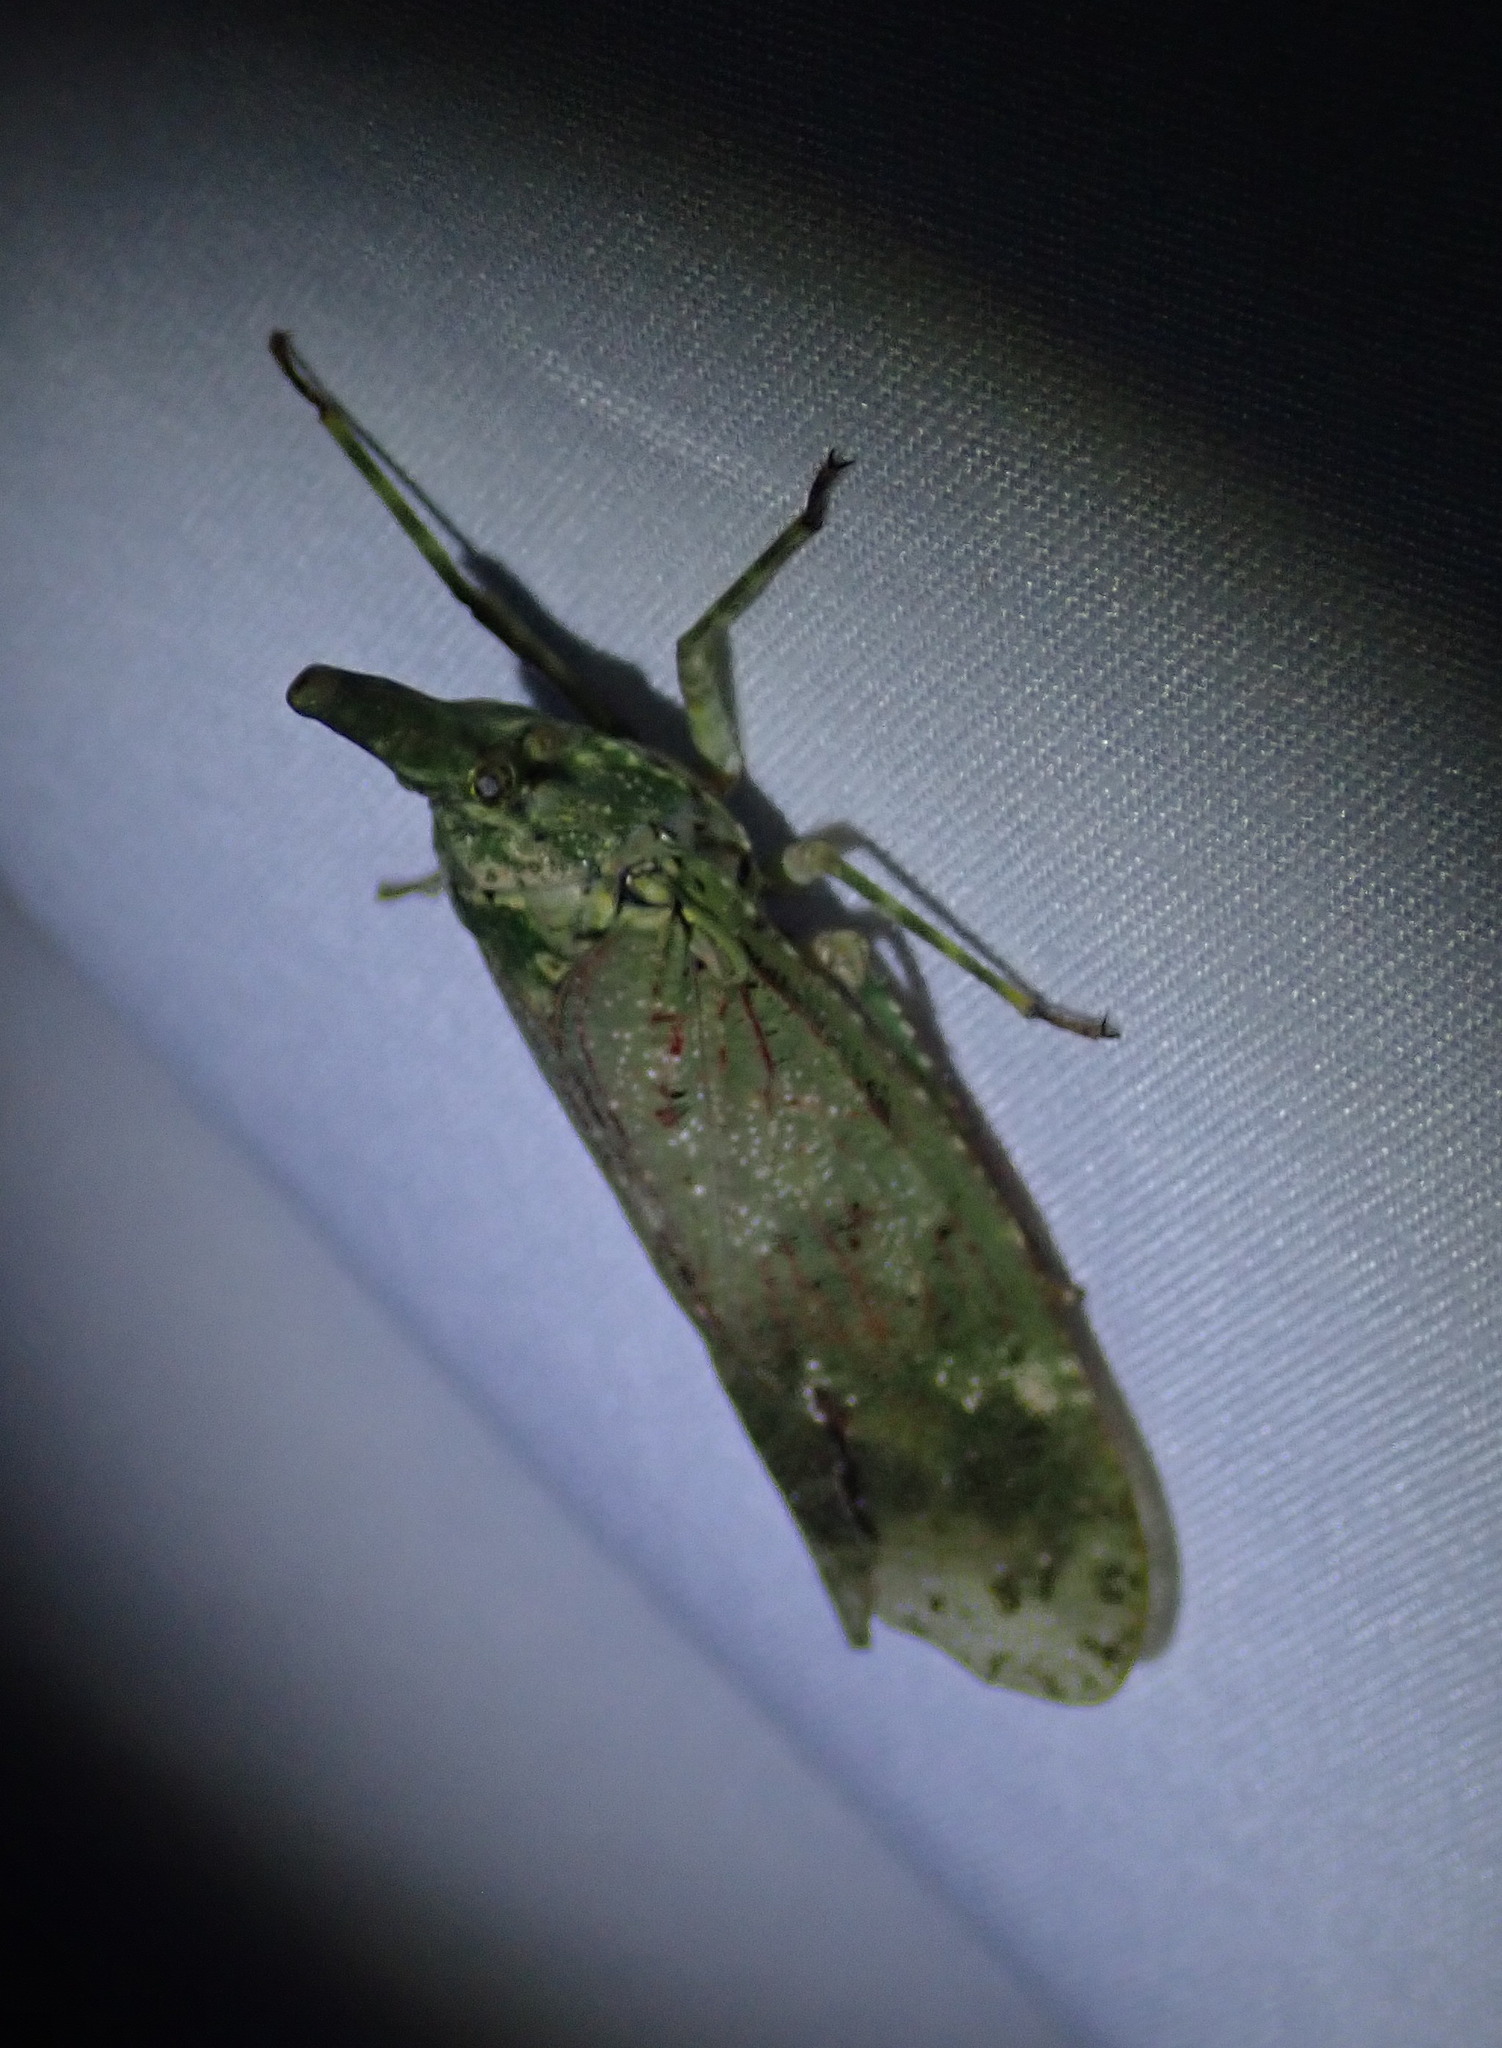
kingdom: Animalia
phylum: Arthropoda
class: Insecta
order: Hemiptera
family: Fulgoridae
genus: Diareusa
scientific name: Diareusa imitatrix
